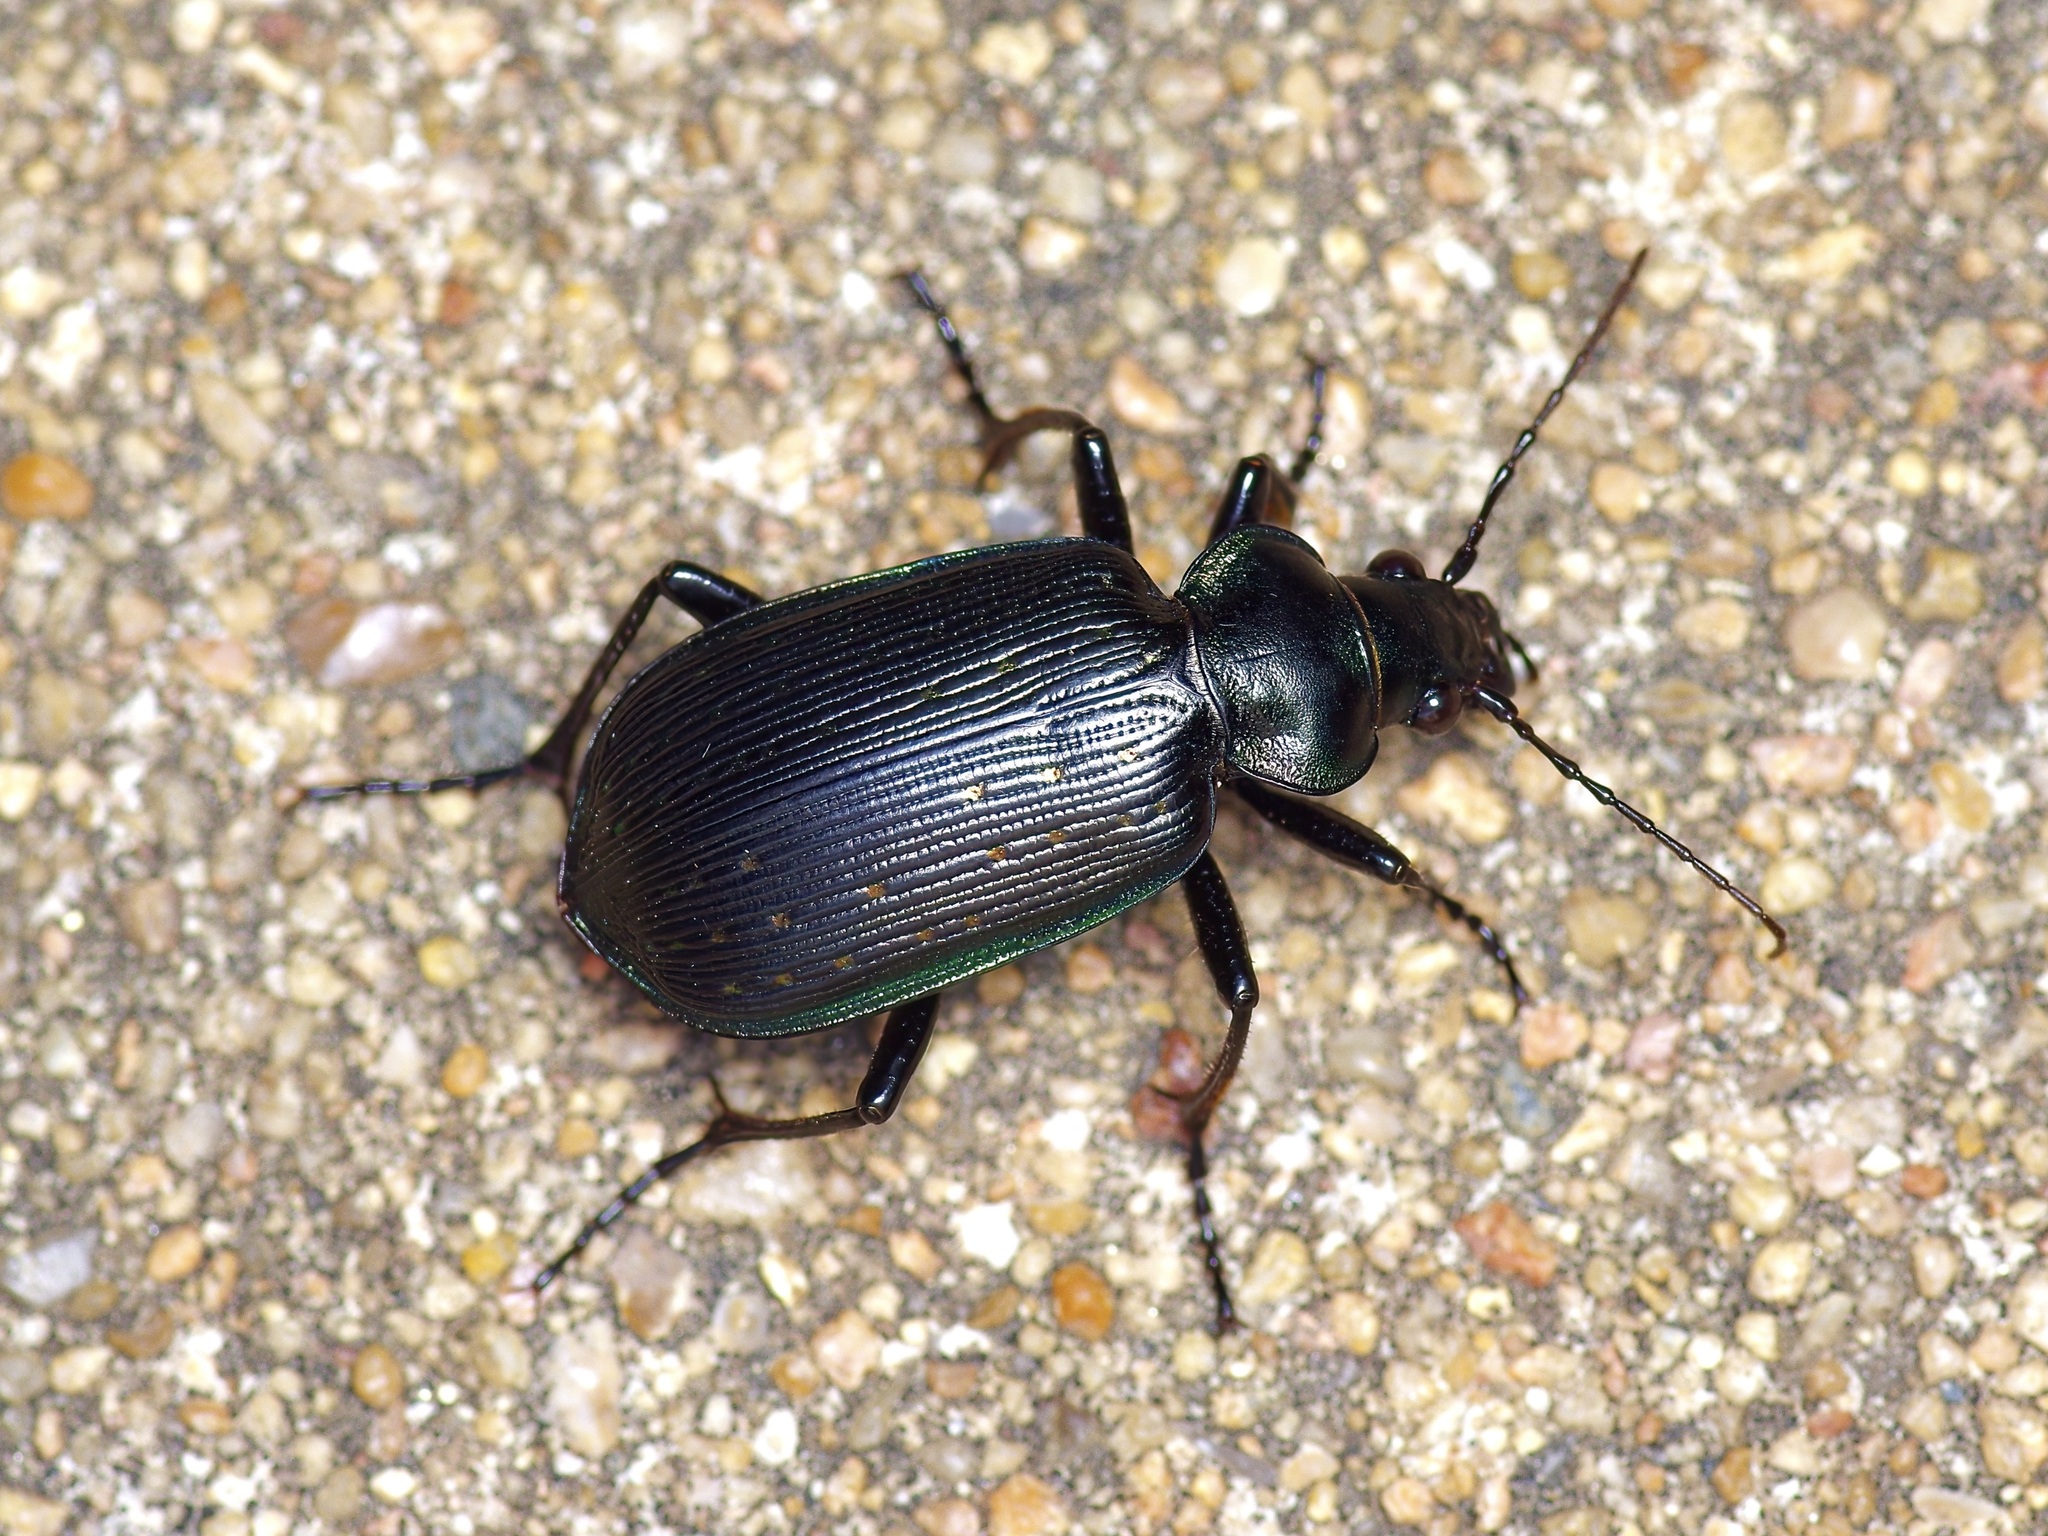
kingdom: Animalia
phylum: Arthropoda
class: Insecta
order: Coleoptera
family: Carabidae
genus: Calosoma
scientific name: Calosoma sayi
